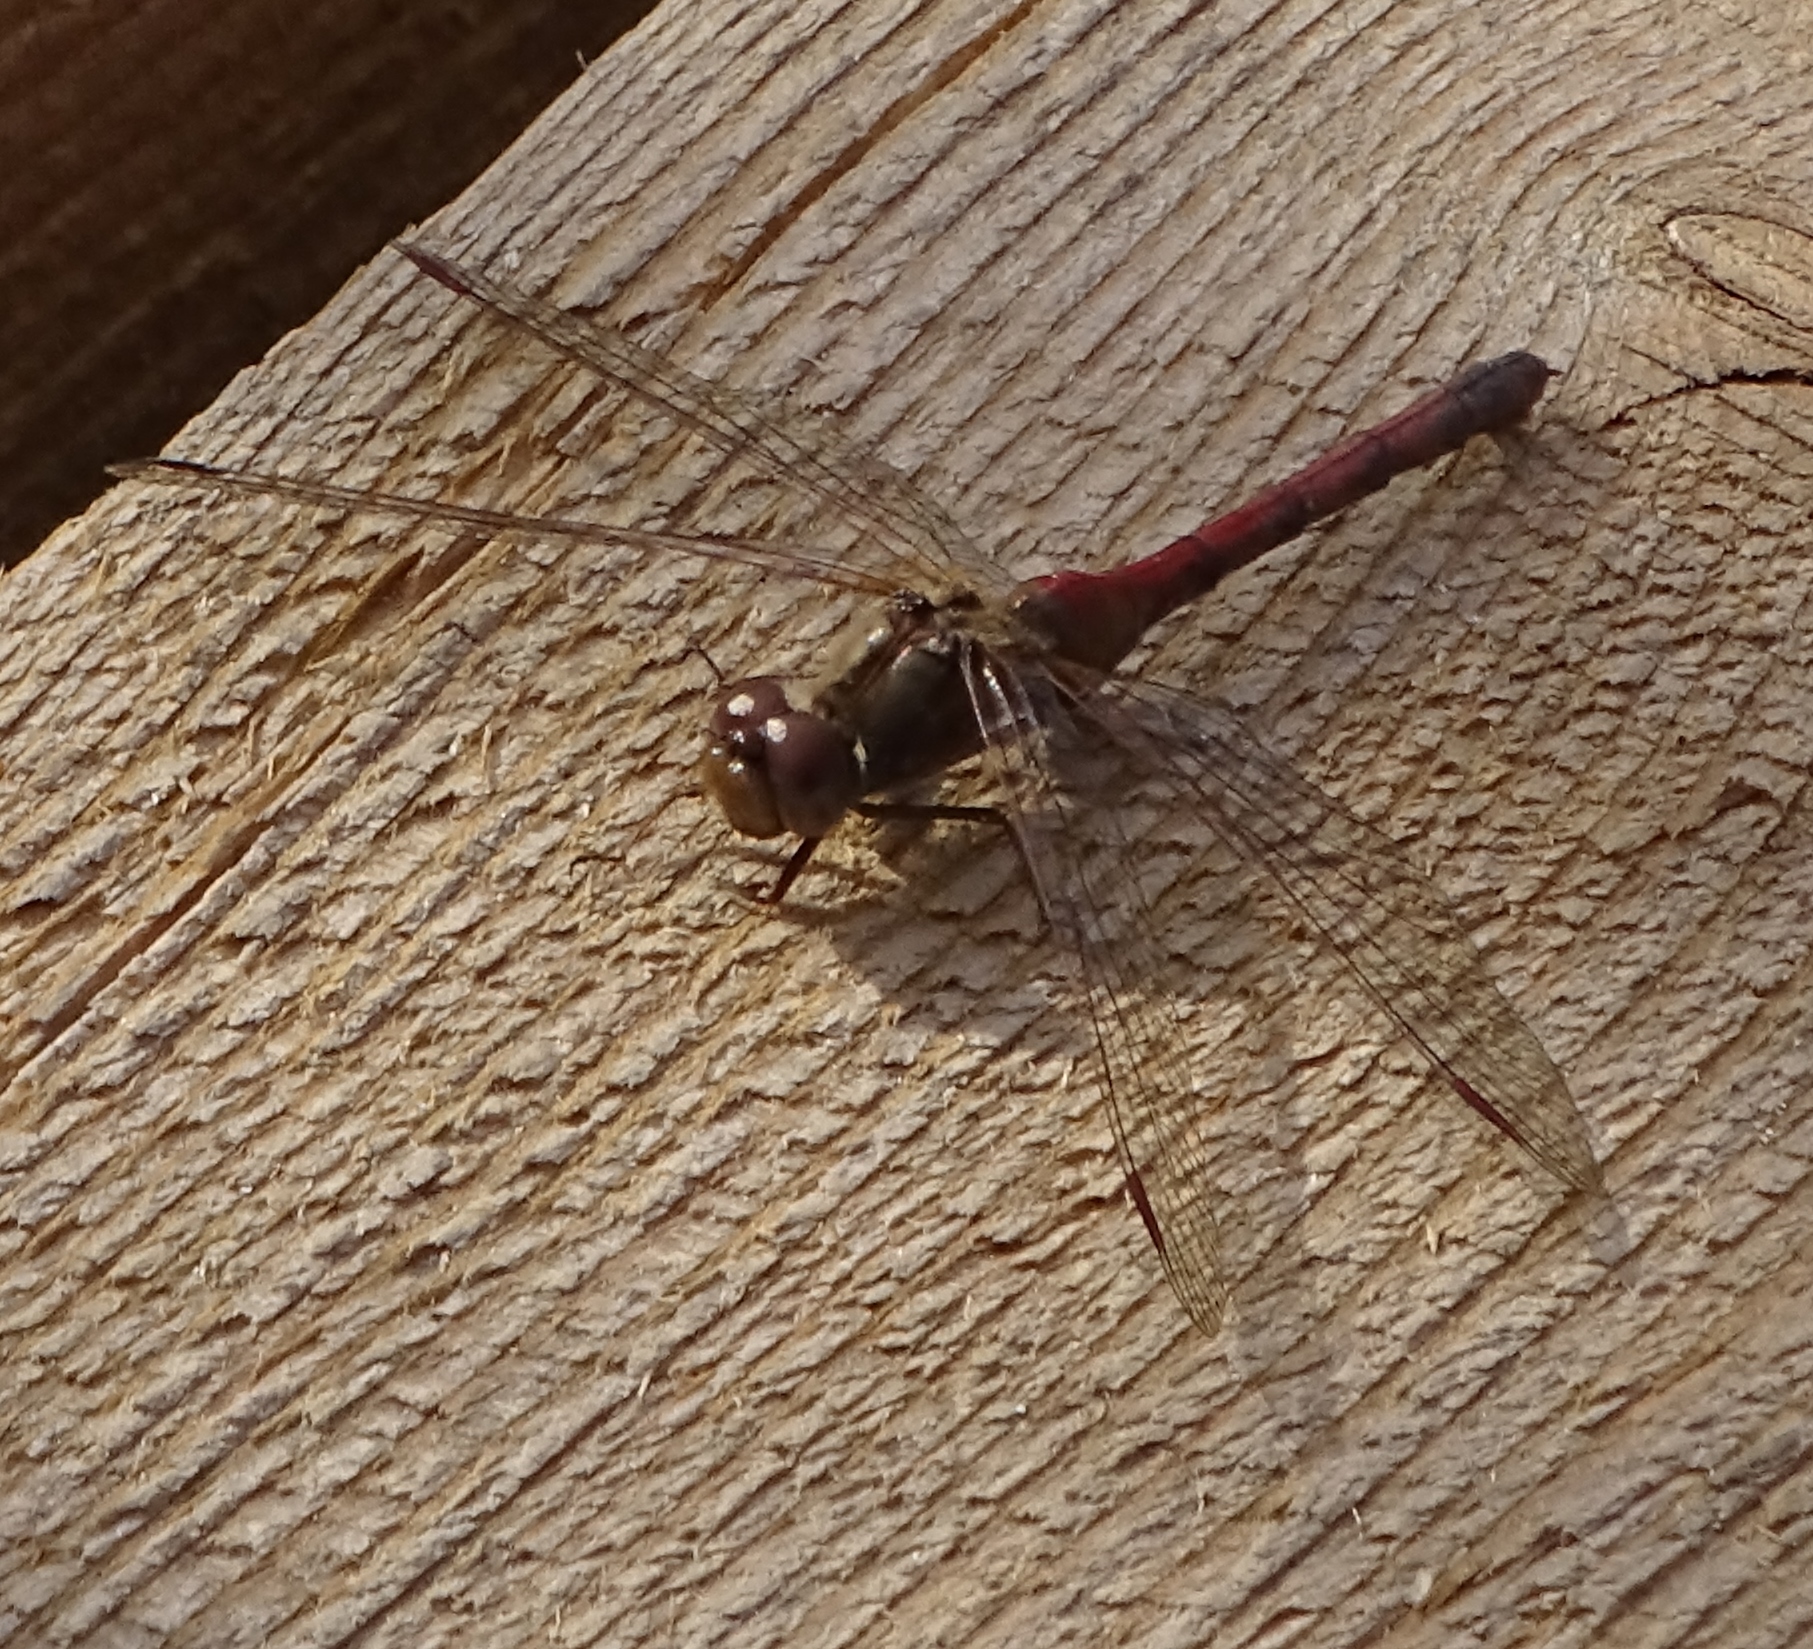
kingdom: Animalia
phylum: Arthropoda
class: Insecta
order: Odonata
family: Libellulidae
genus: Sympetrum
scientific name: Sympetrum vicinum
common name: Autumn meadowhawk
